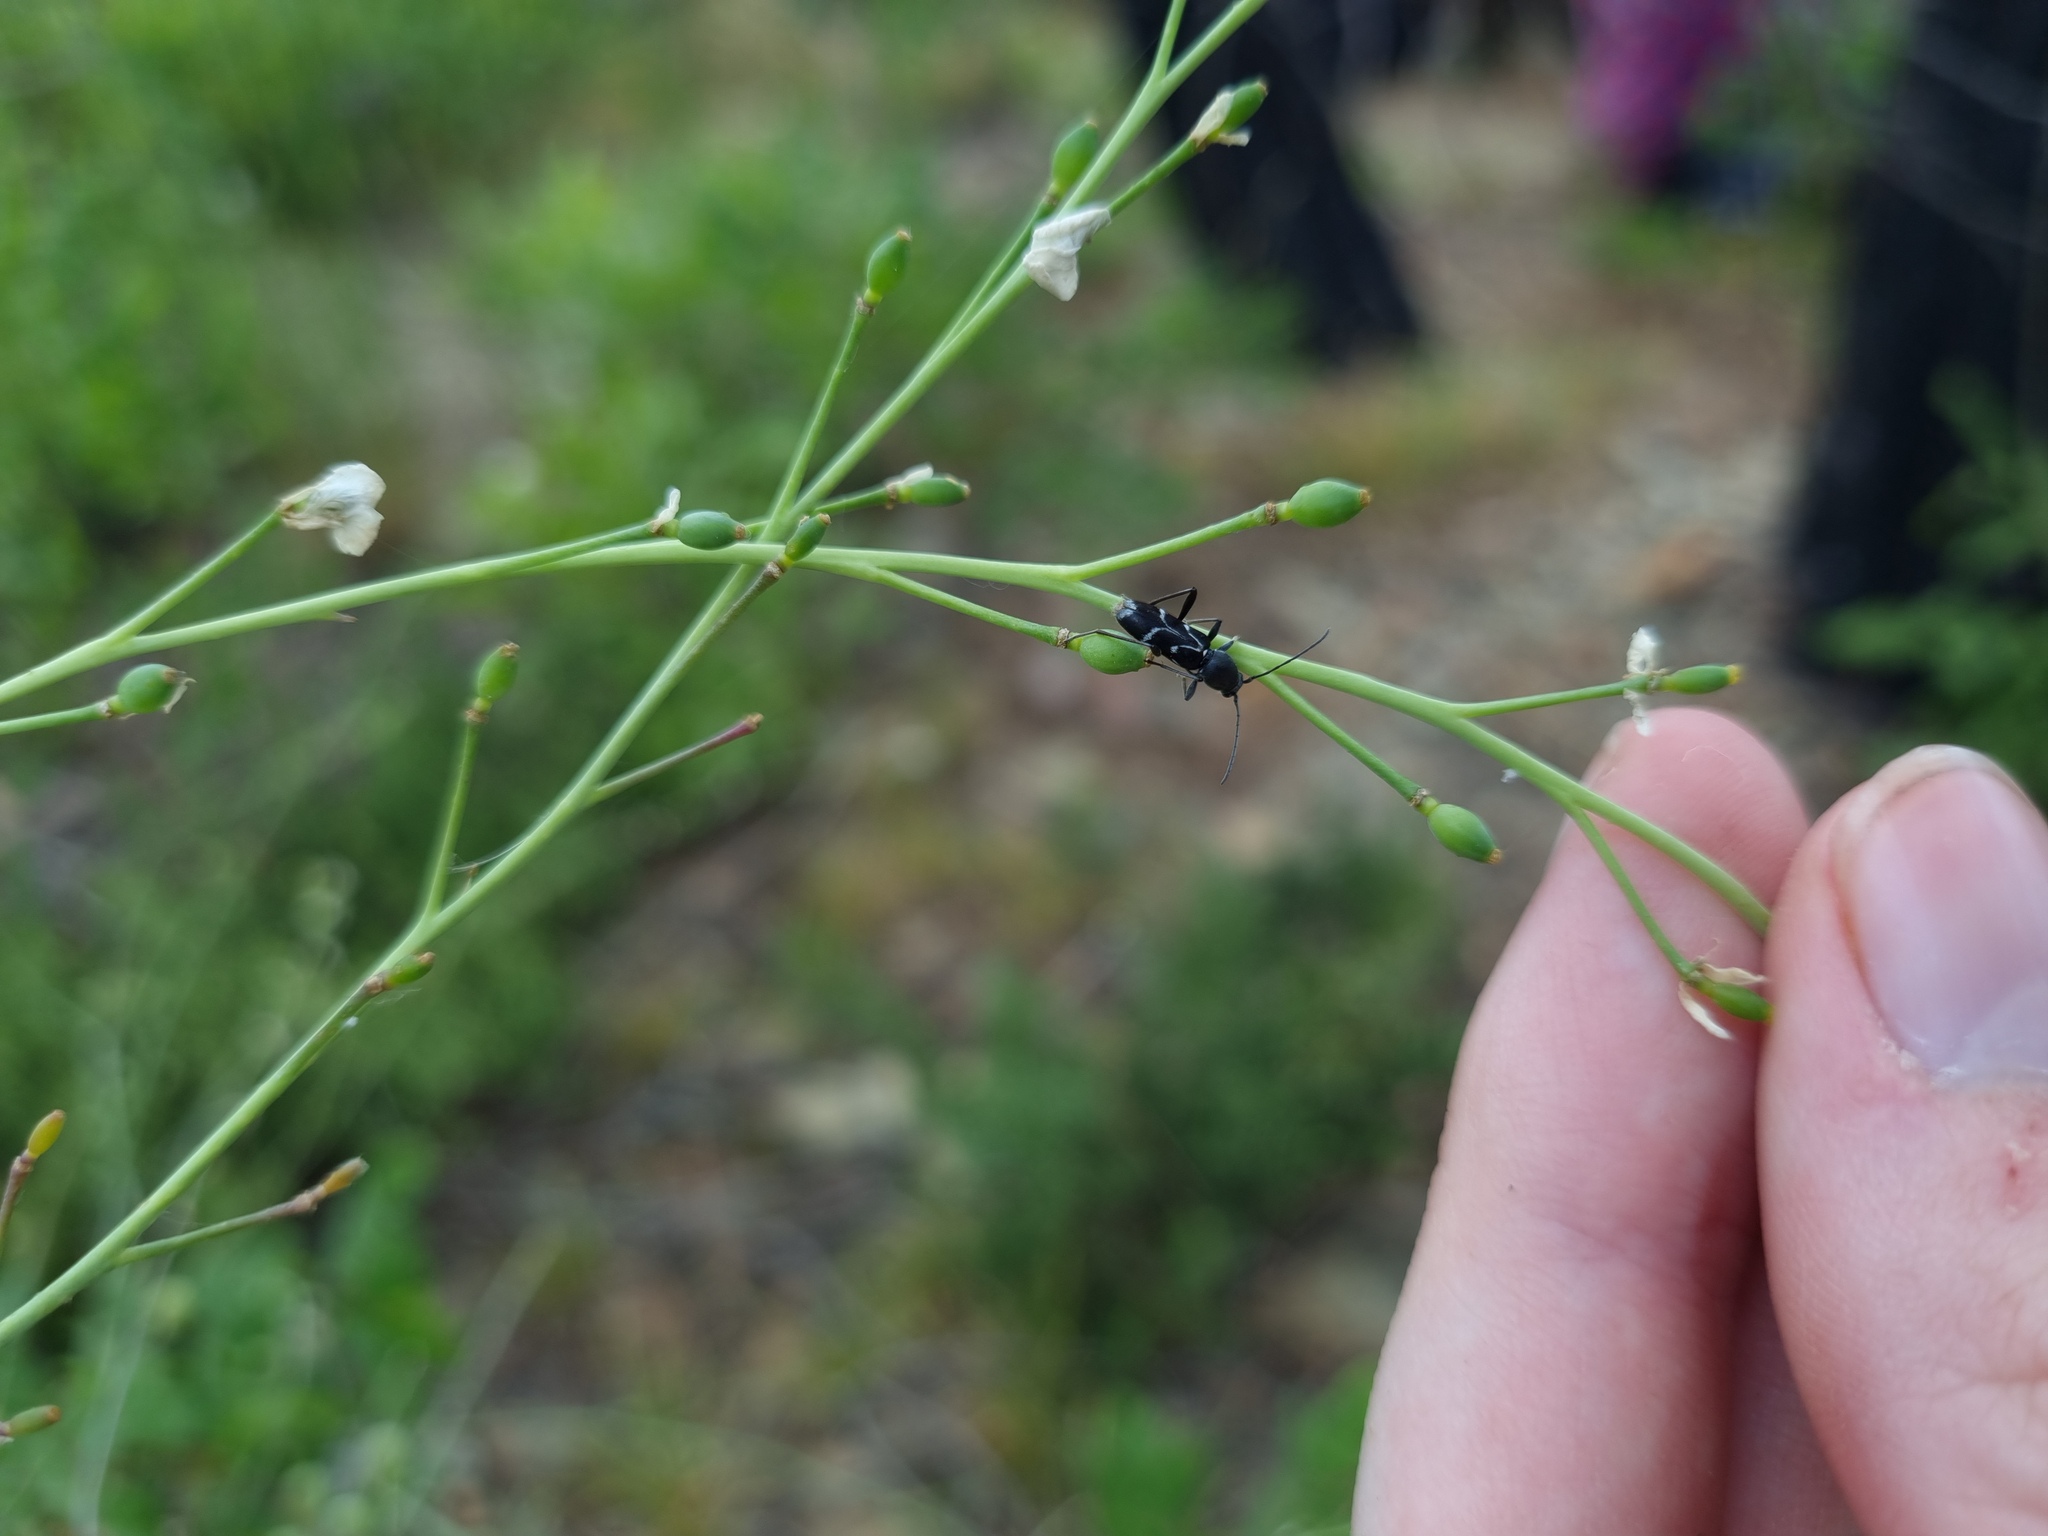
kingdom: Animalia
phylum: Arthropoda
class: Insecta
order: Coleoptera
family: Cerambycidae
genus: Chlorophorus
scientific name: Chlorophorus sartor
